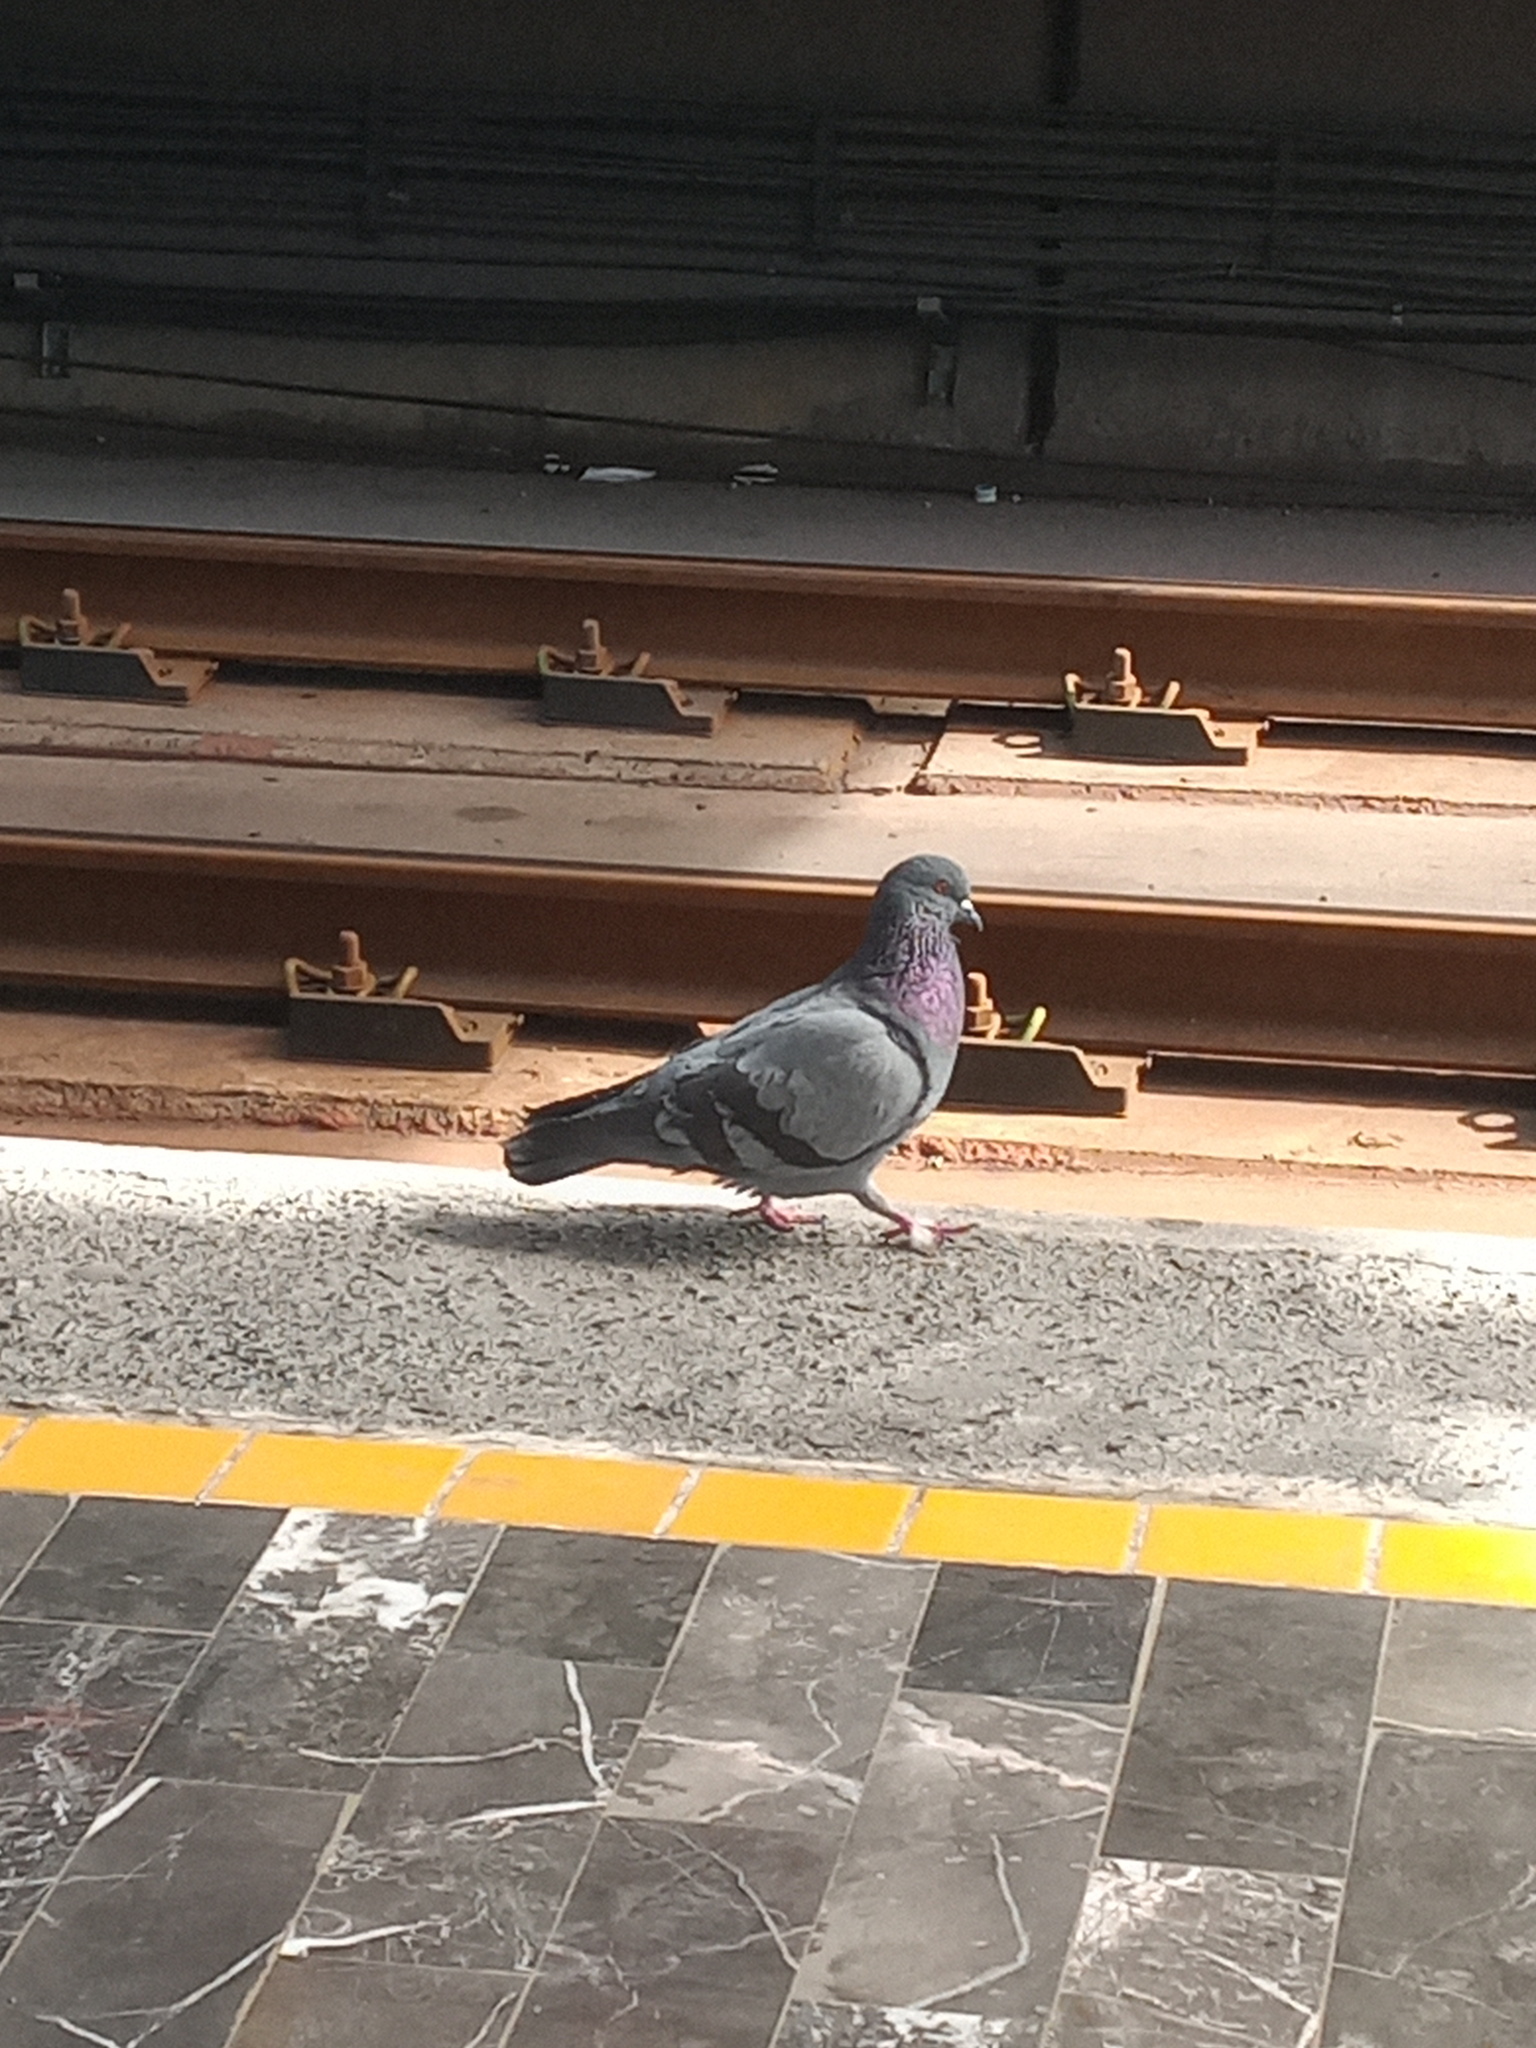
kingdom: Animalia
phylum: Chordata
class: Aves
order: Columbiformes
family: Columbidae
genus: Columba
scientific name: Columba livia
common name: Rock pigeon
